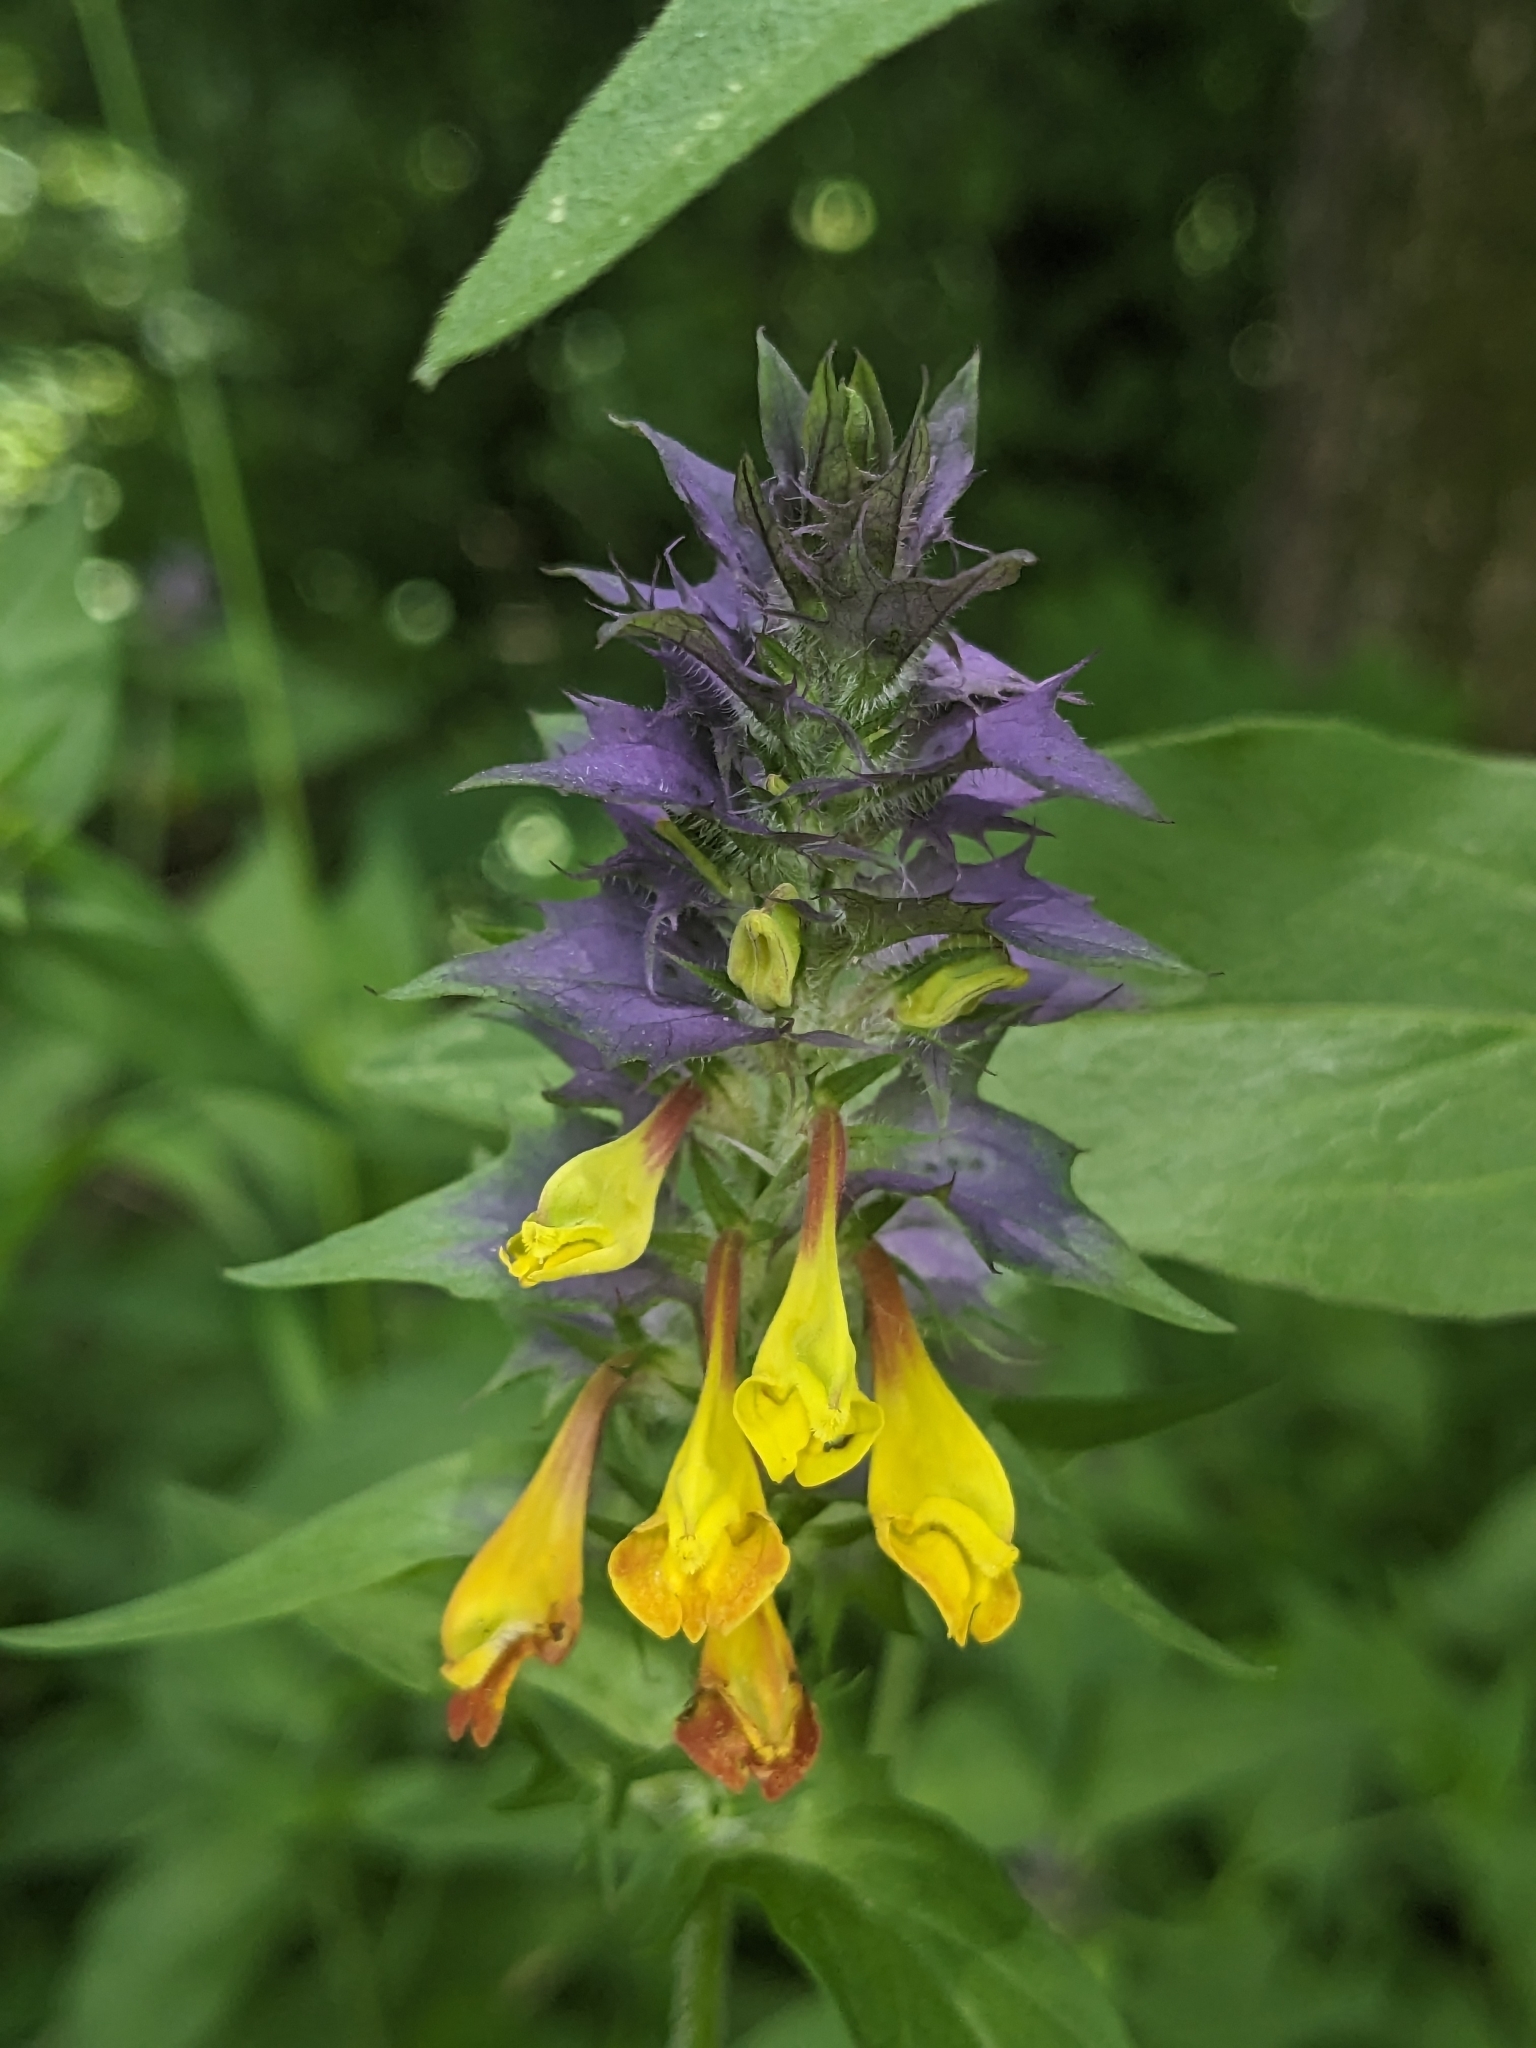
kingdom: Plantae
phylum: Tracheophyta
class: Magnoliopsida
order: Lamiales
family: Orobanchaceae
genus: Melampyrum
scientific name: Melampyrum nemorosum
